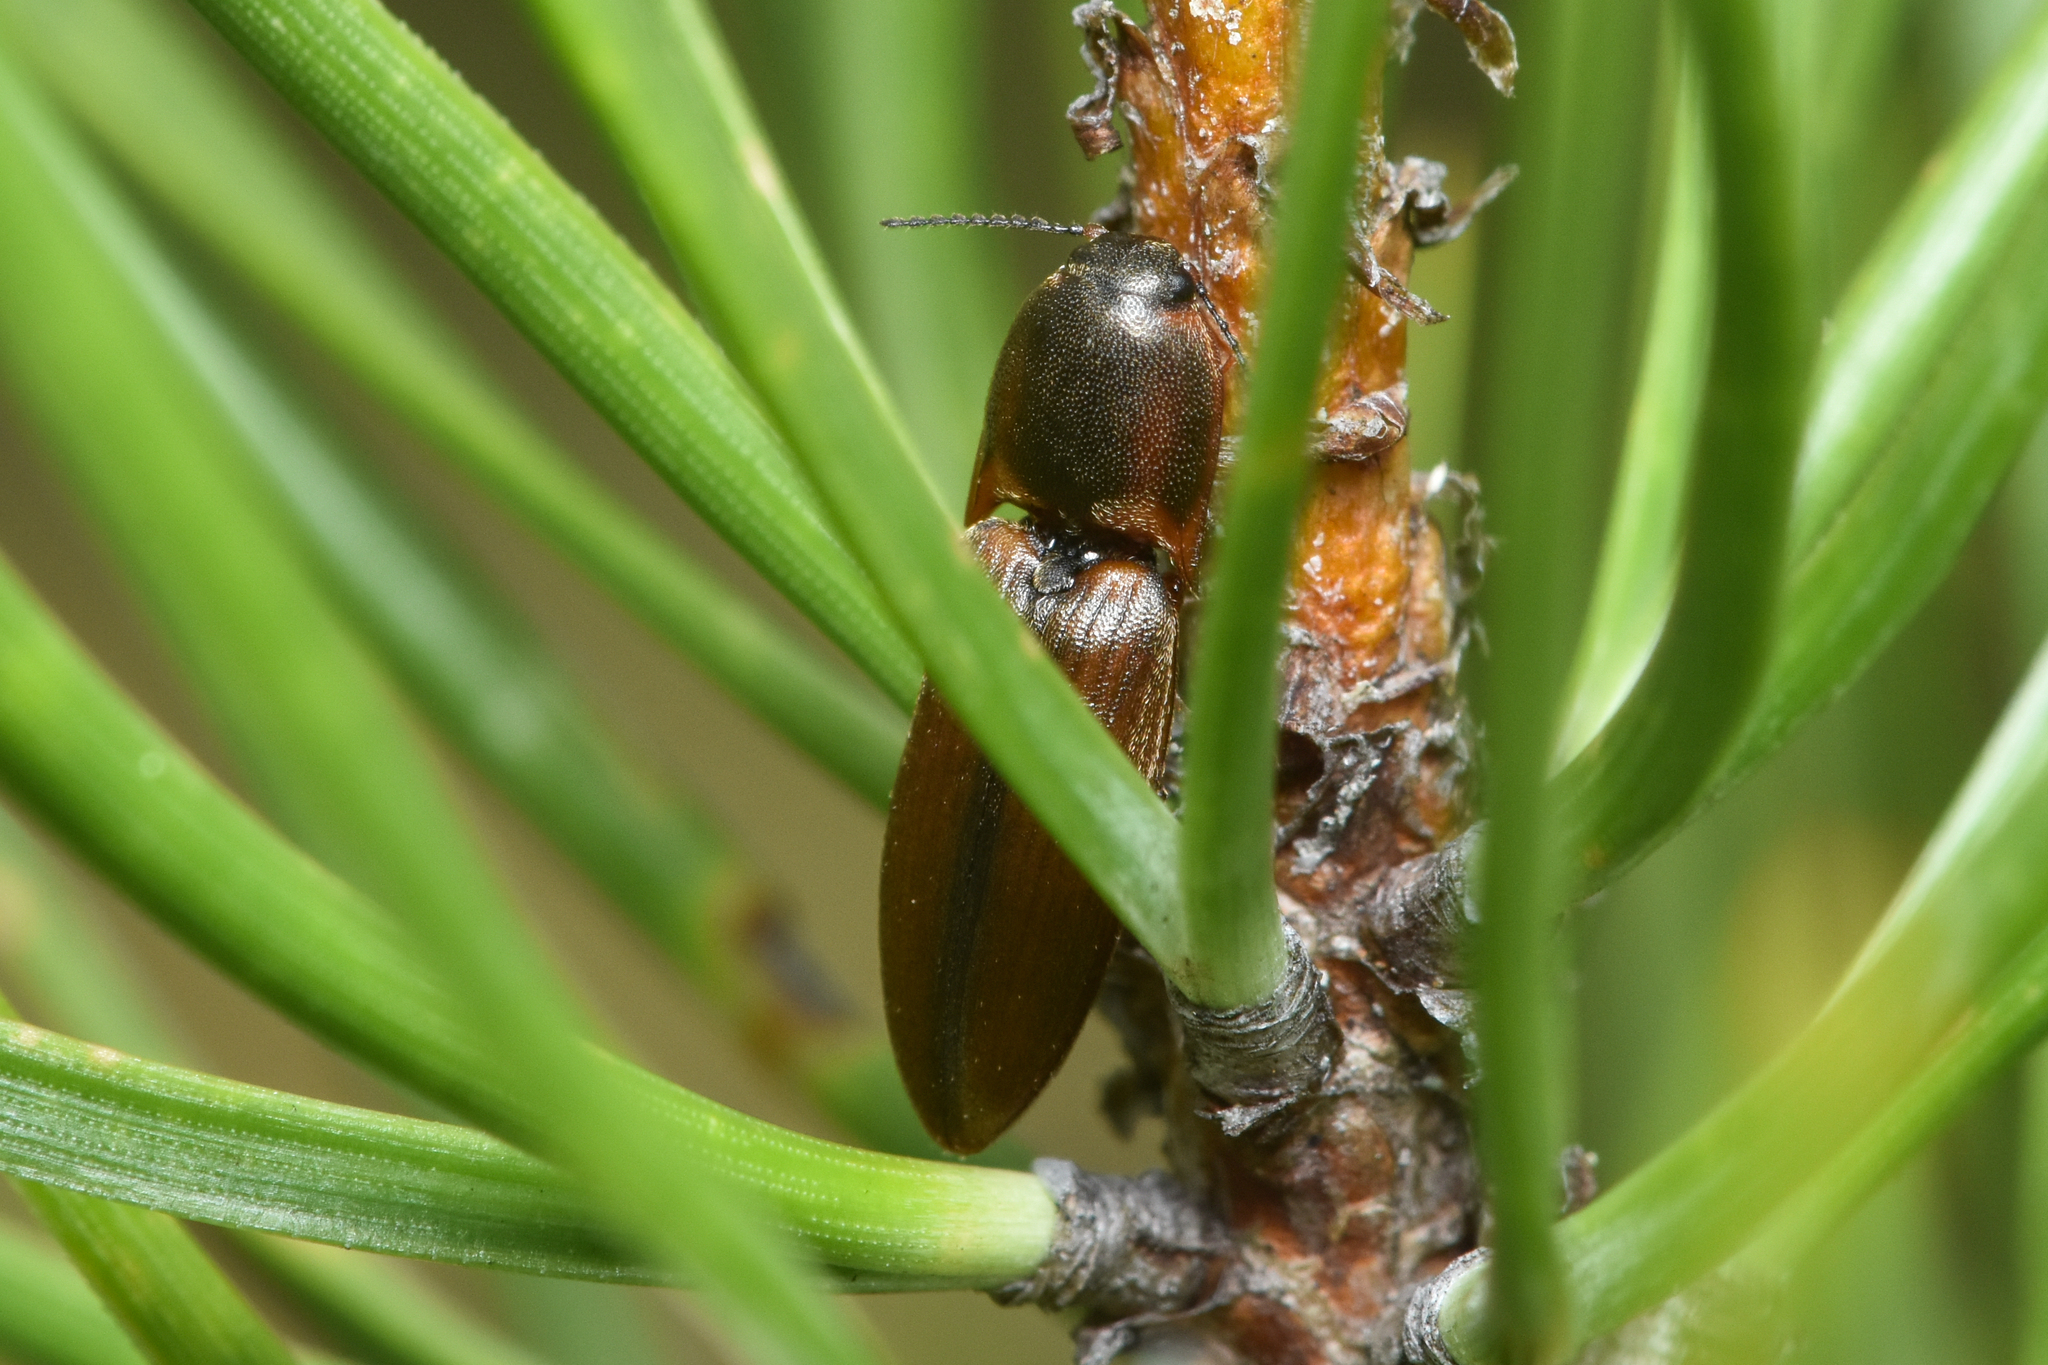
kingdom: Animalia
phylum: Arthropoda
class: Insecta
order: Coleoptera
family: Elateridae
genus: Sericus
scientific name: Sericus incongruus
